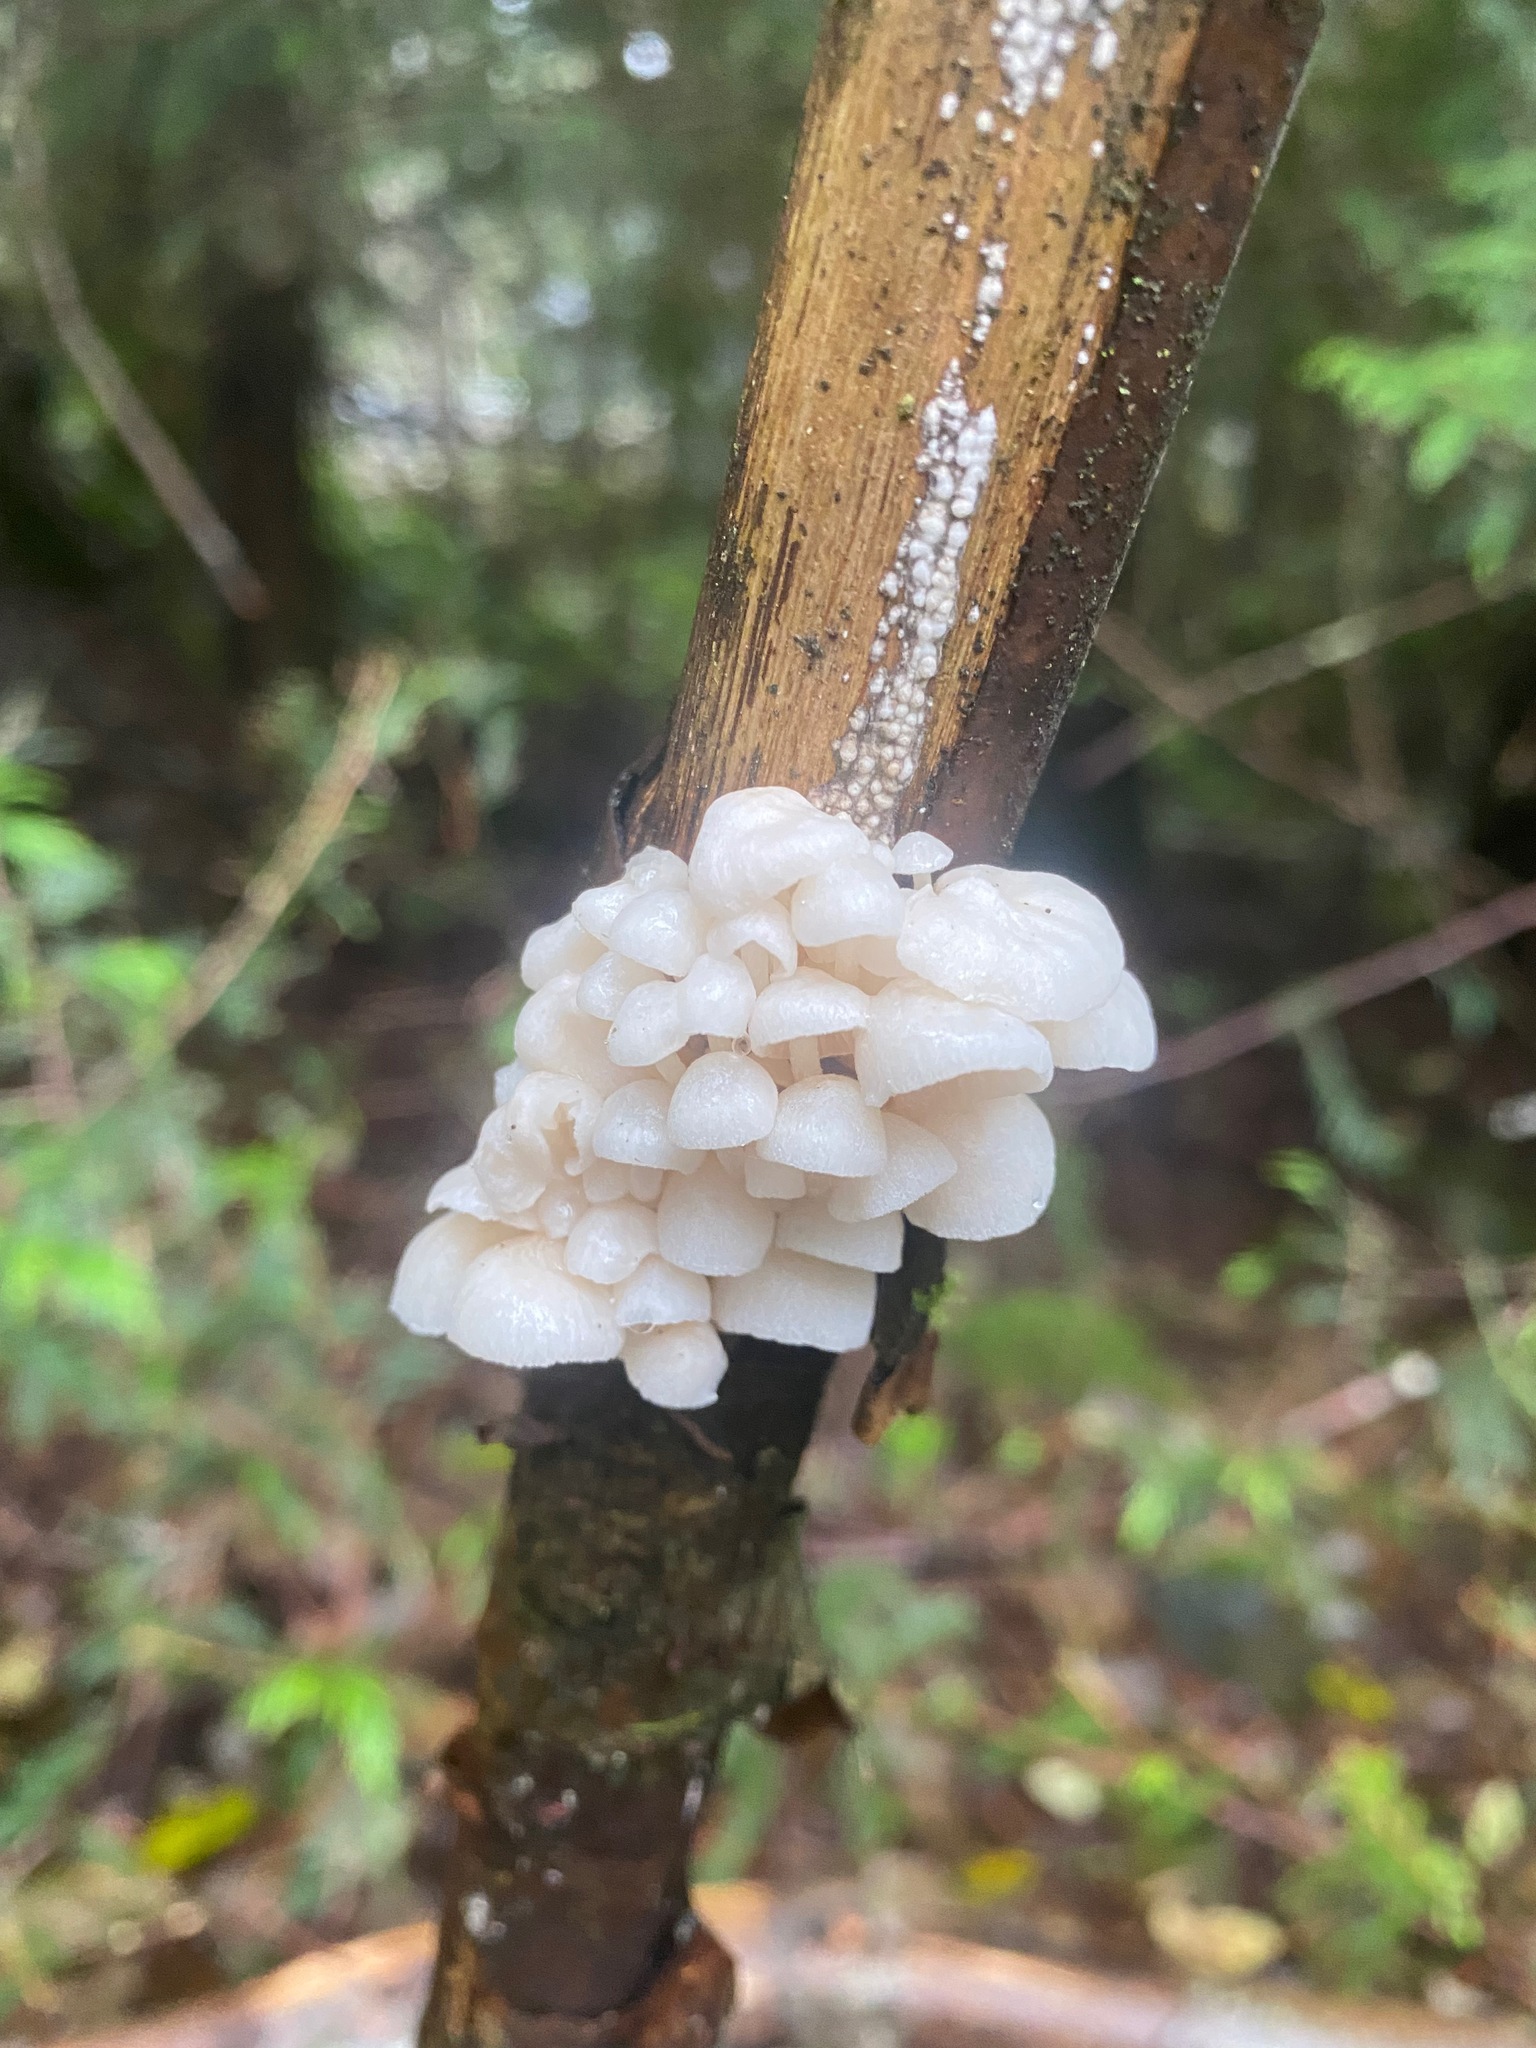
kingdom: Fungi
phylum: Basidiomycota
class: Agaricomycetes
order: Agaricales
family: Omphalotaceae
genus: Marasmiellus
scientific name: Marasmiellus candidus
